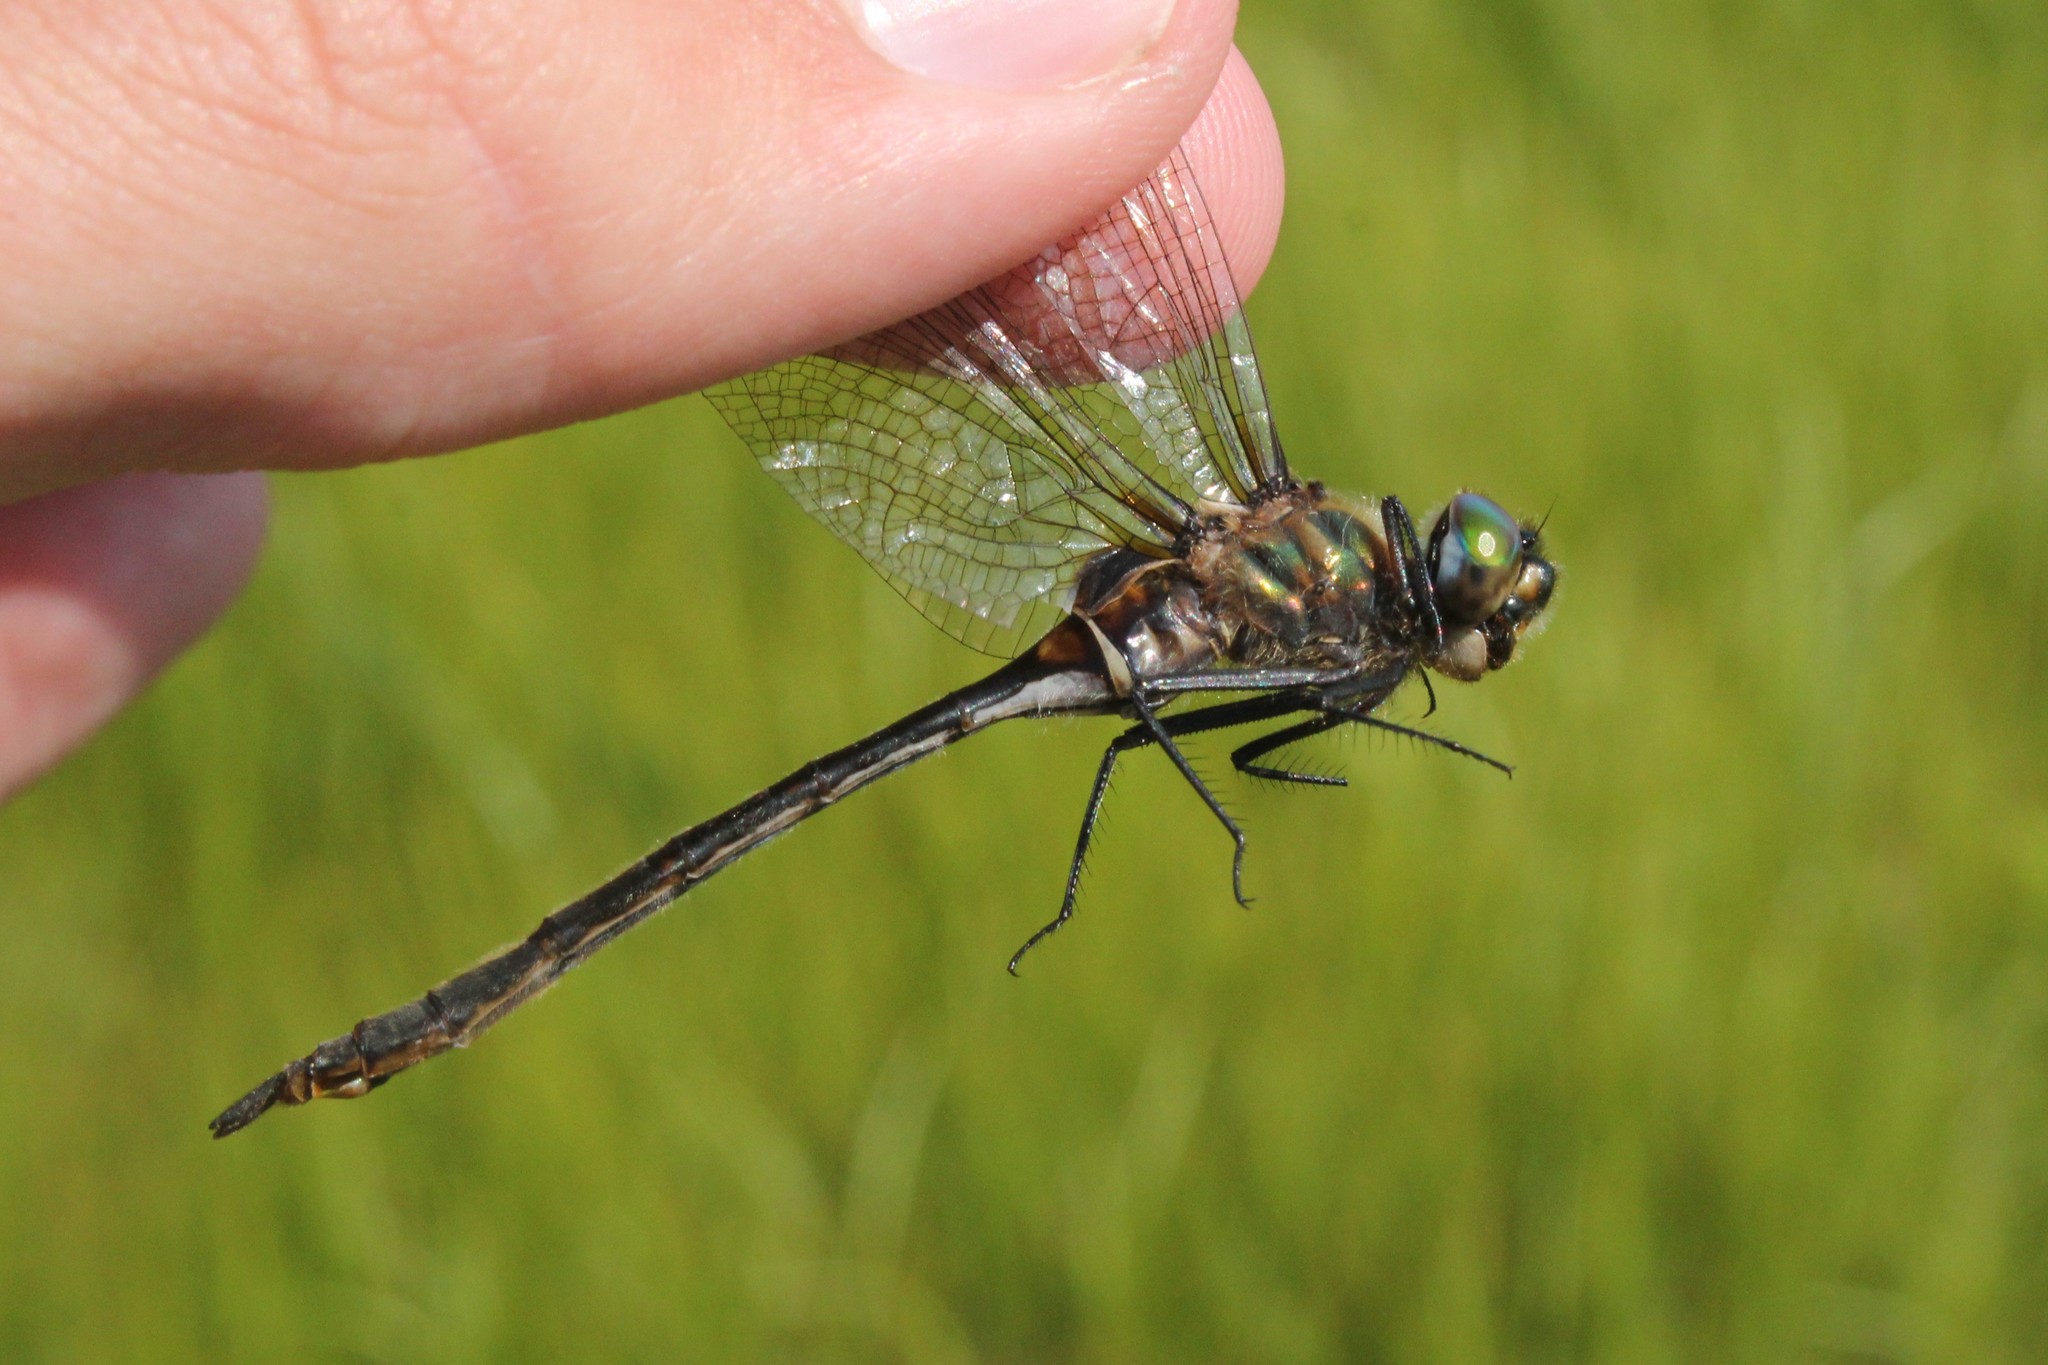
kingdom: Animalia
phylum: Arthropoda
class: Insecta
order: Odonata
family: Corduliidae
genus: Somatochlora
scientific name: Somatochlora franklini
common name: Delicate emerald
